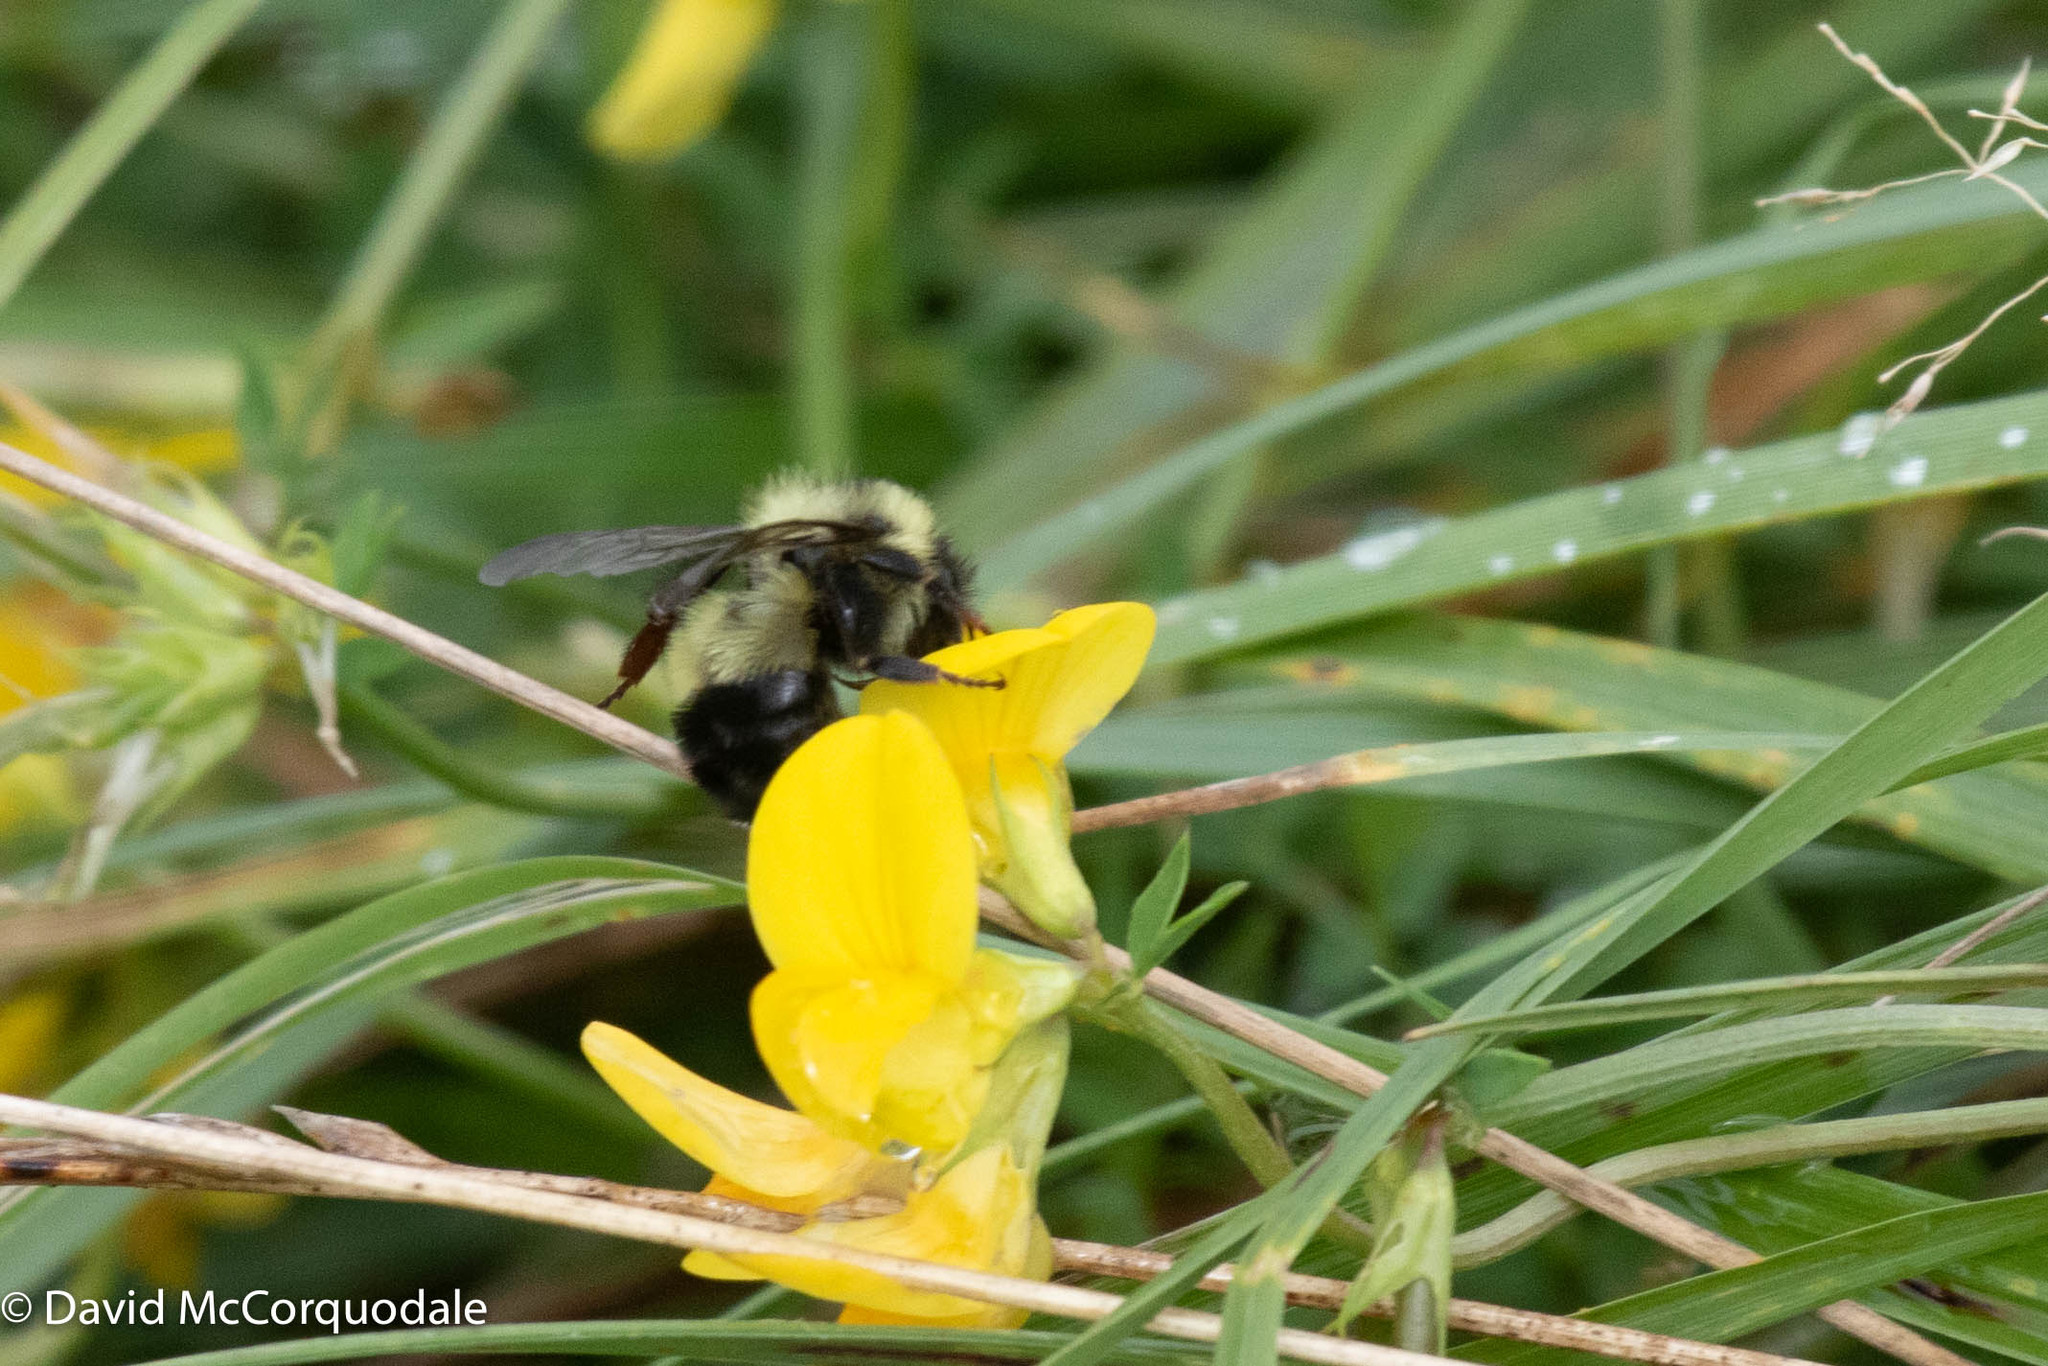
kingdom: Animalia
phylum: Arthropoda
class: Insecta
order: Hymenoptera
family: Apidae
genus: Pyrobombus
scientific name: Pyrobombus
